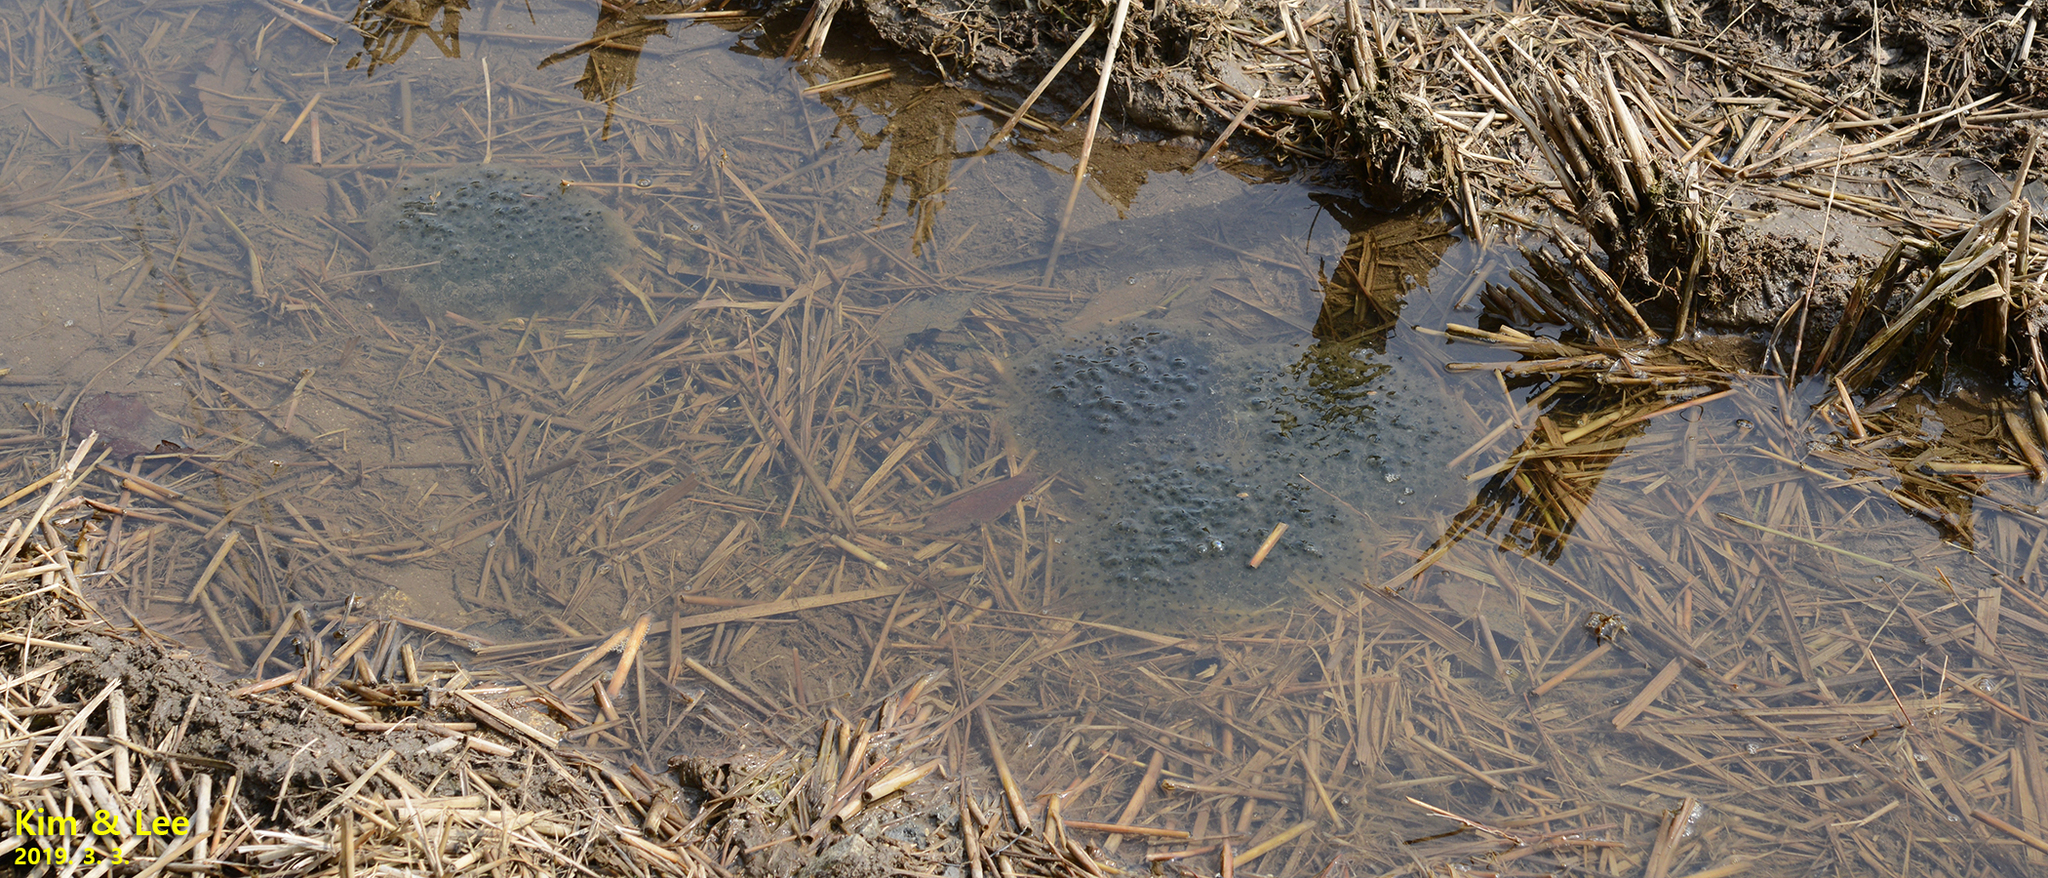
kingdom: Animalia
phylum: Chordata
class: Amphibia
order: Anura
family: Ranidae
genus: Rana
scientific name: Rana uenoi
